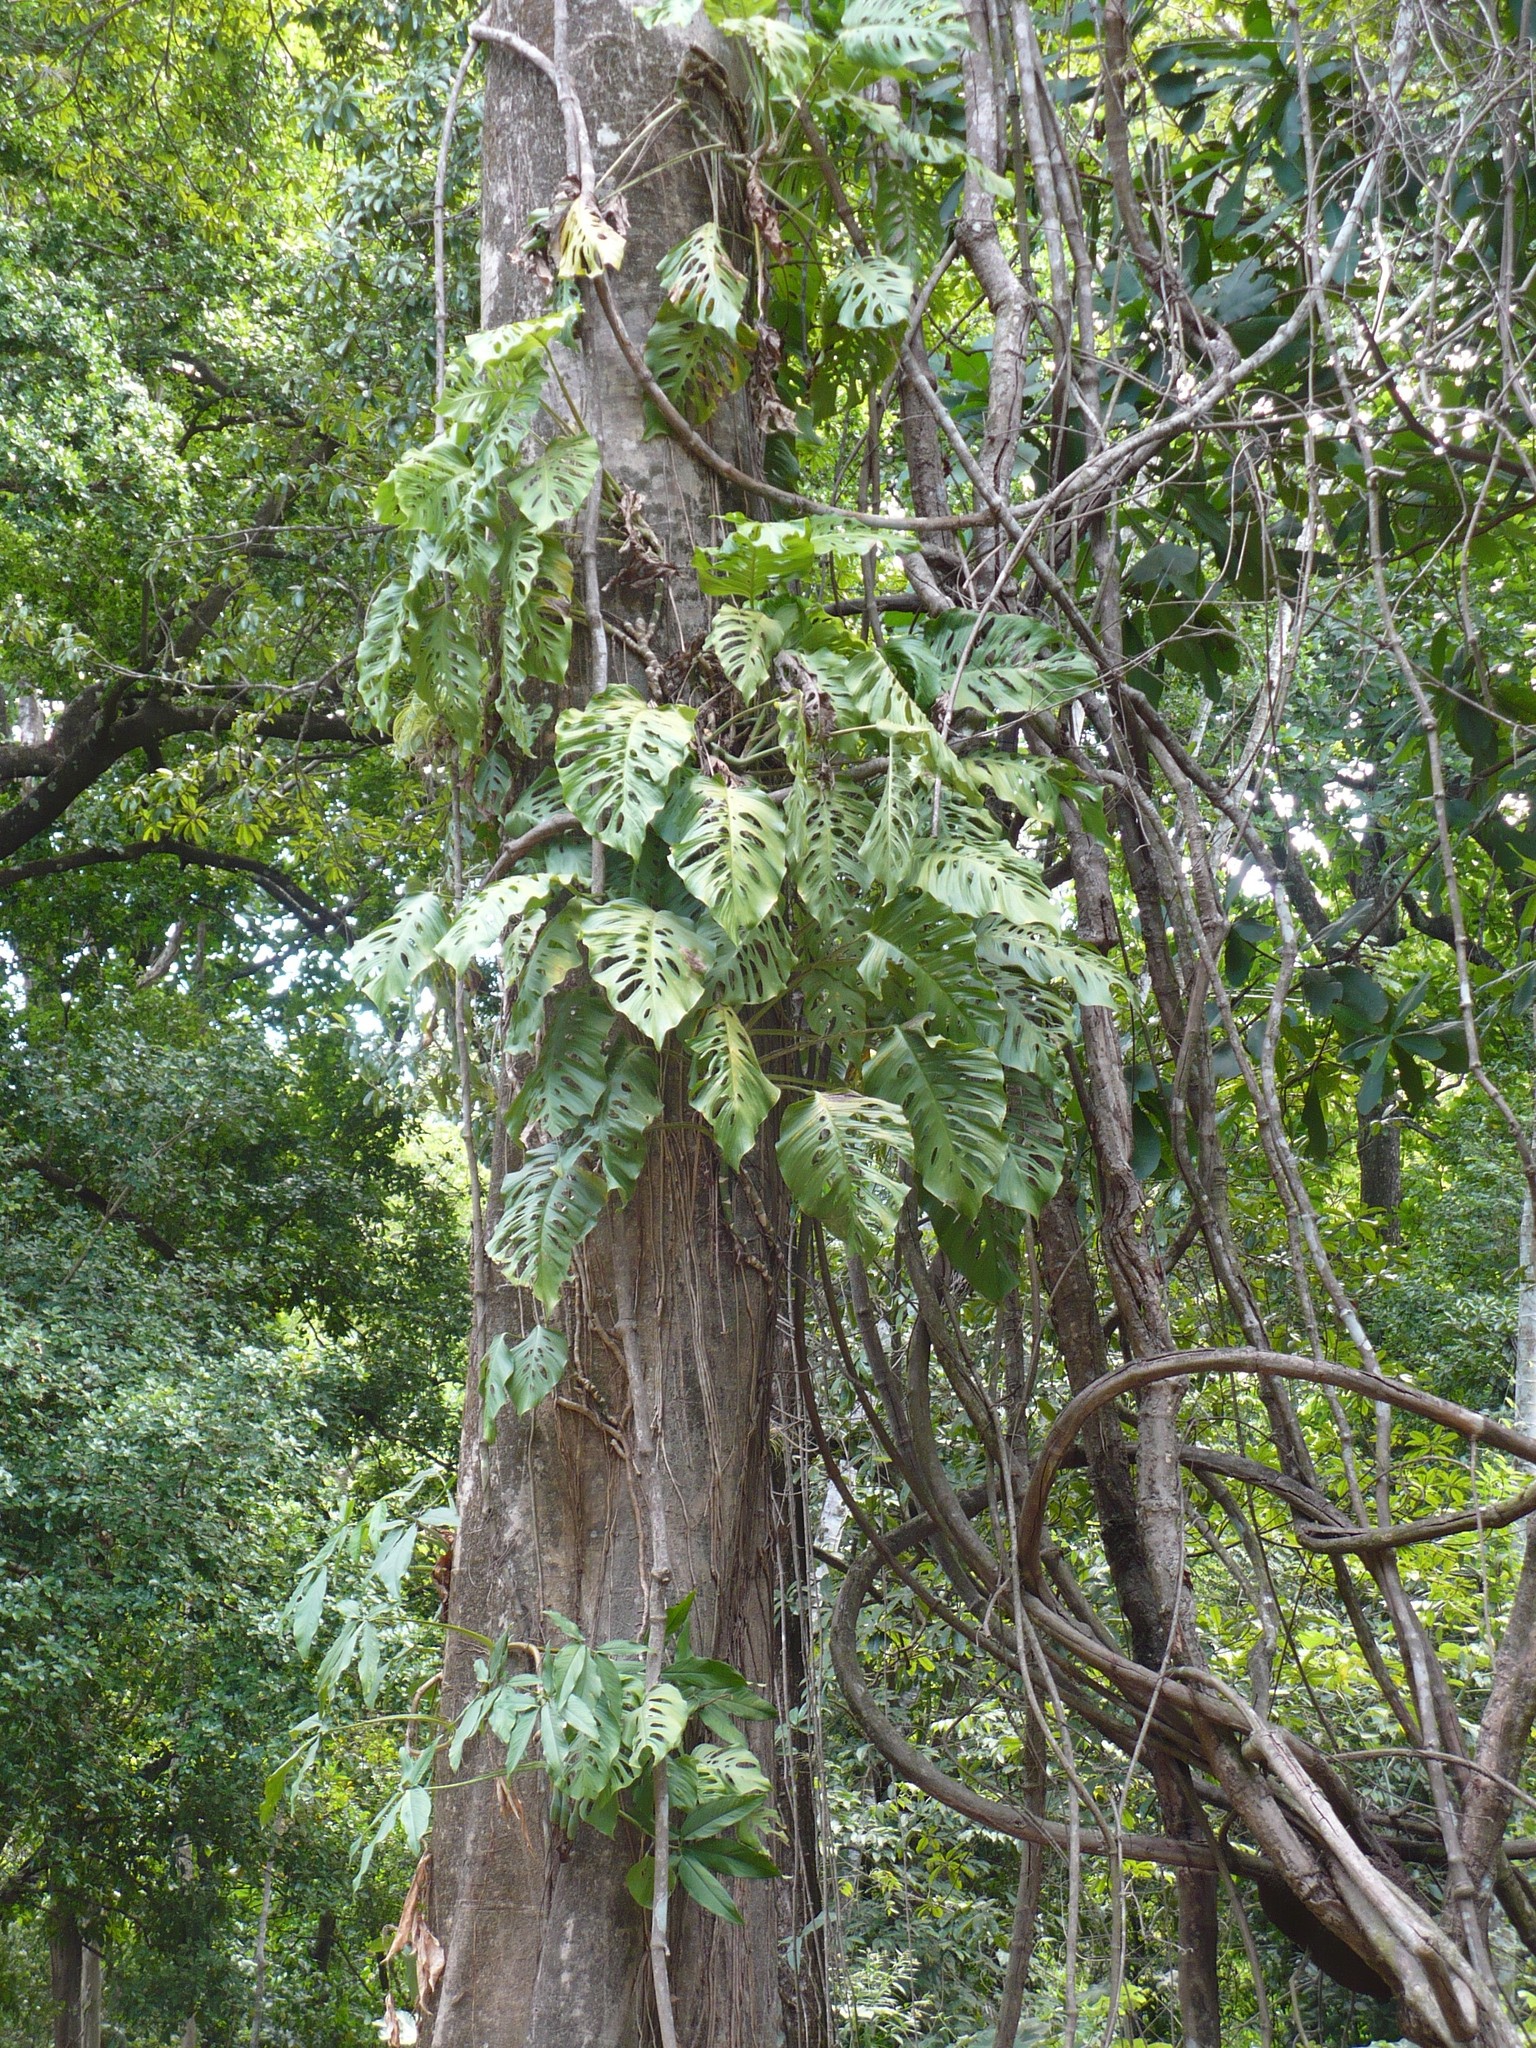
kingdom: Plantae
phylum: Tracheophyta
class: Liliopsida
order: Alismatales
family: Araceae
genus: Monstera
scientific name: Monstera adansonii
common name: Tarovine
